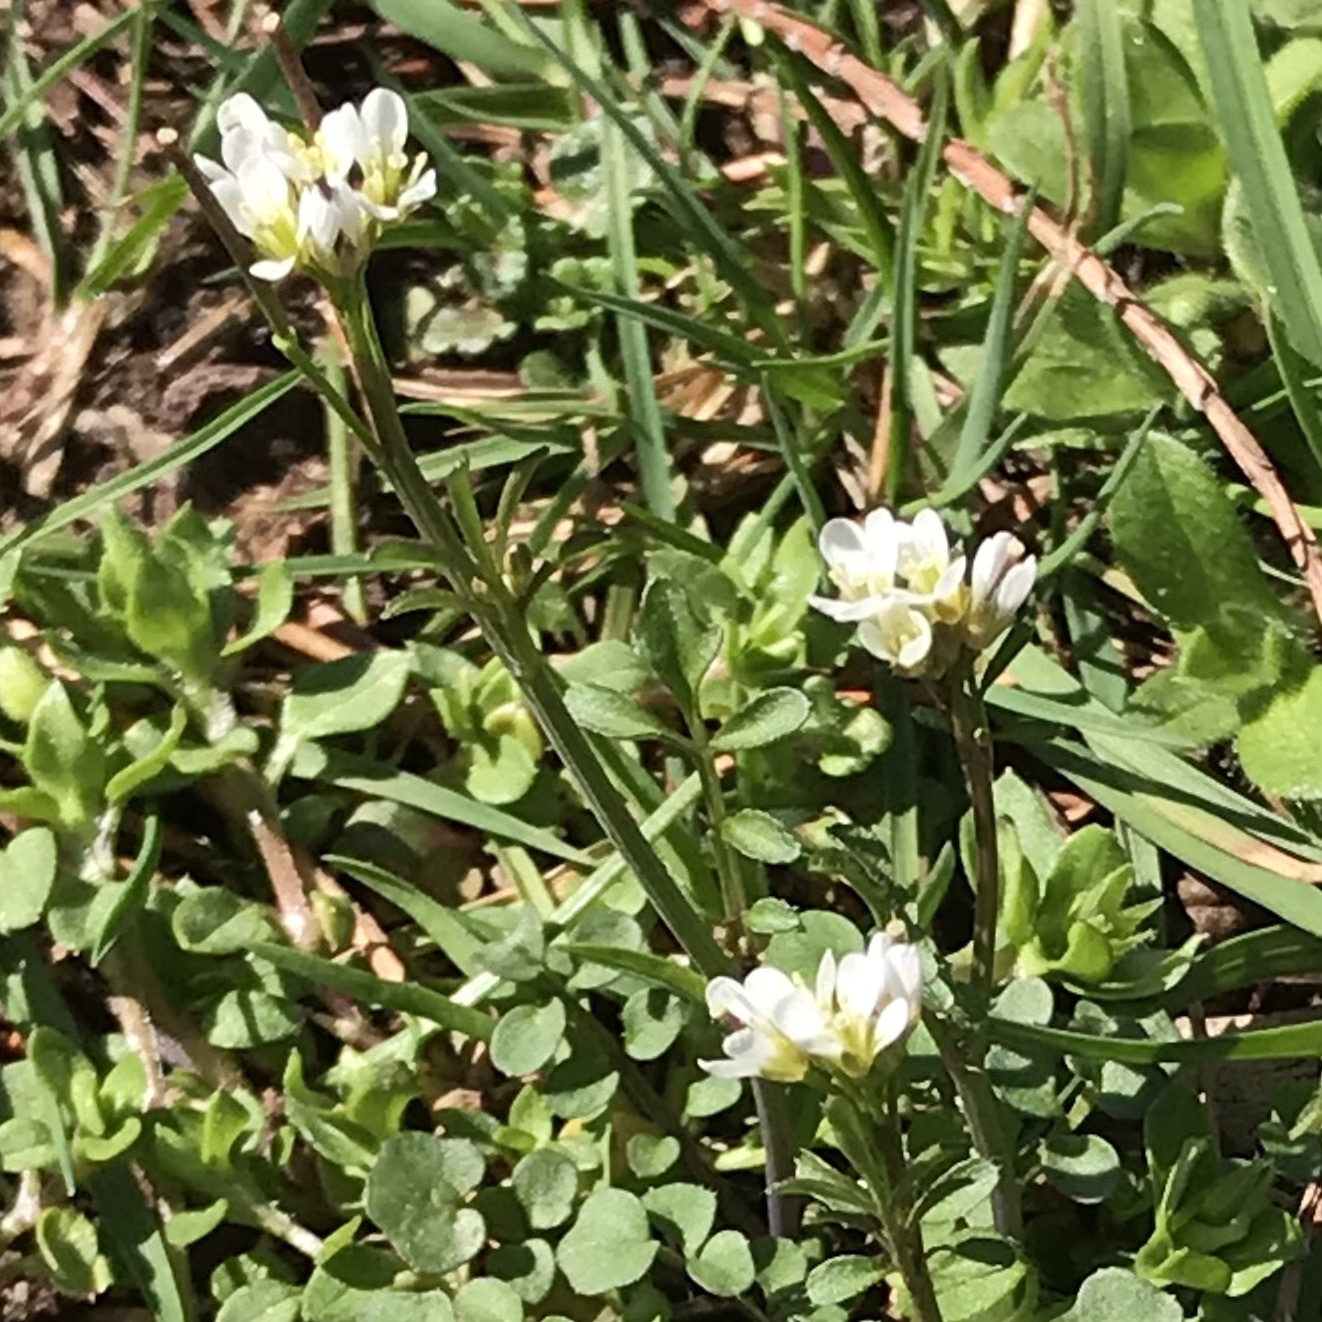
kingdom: Plantae
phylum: Tracheophyta
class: Magnoliopsida
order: Brassicales
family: Brassicaceae
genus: Cardamine
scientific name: Cardamine hirsuta
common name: Hairy bittercress
